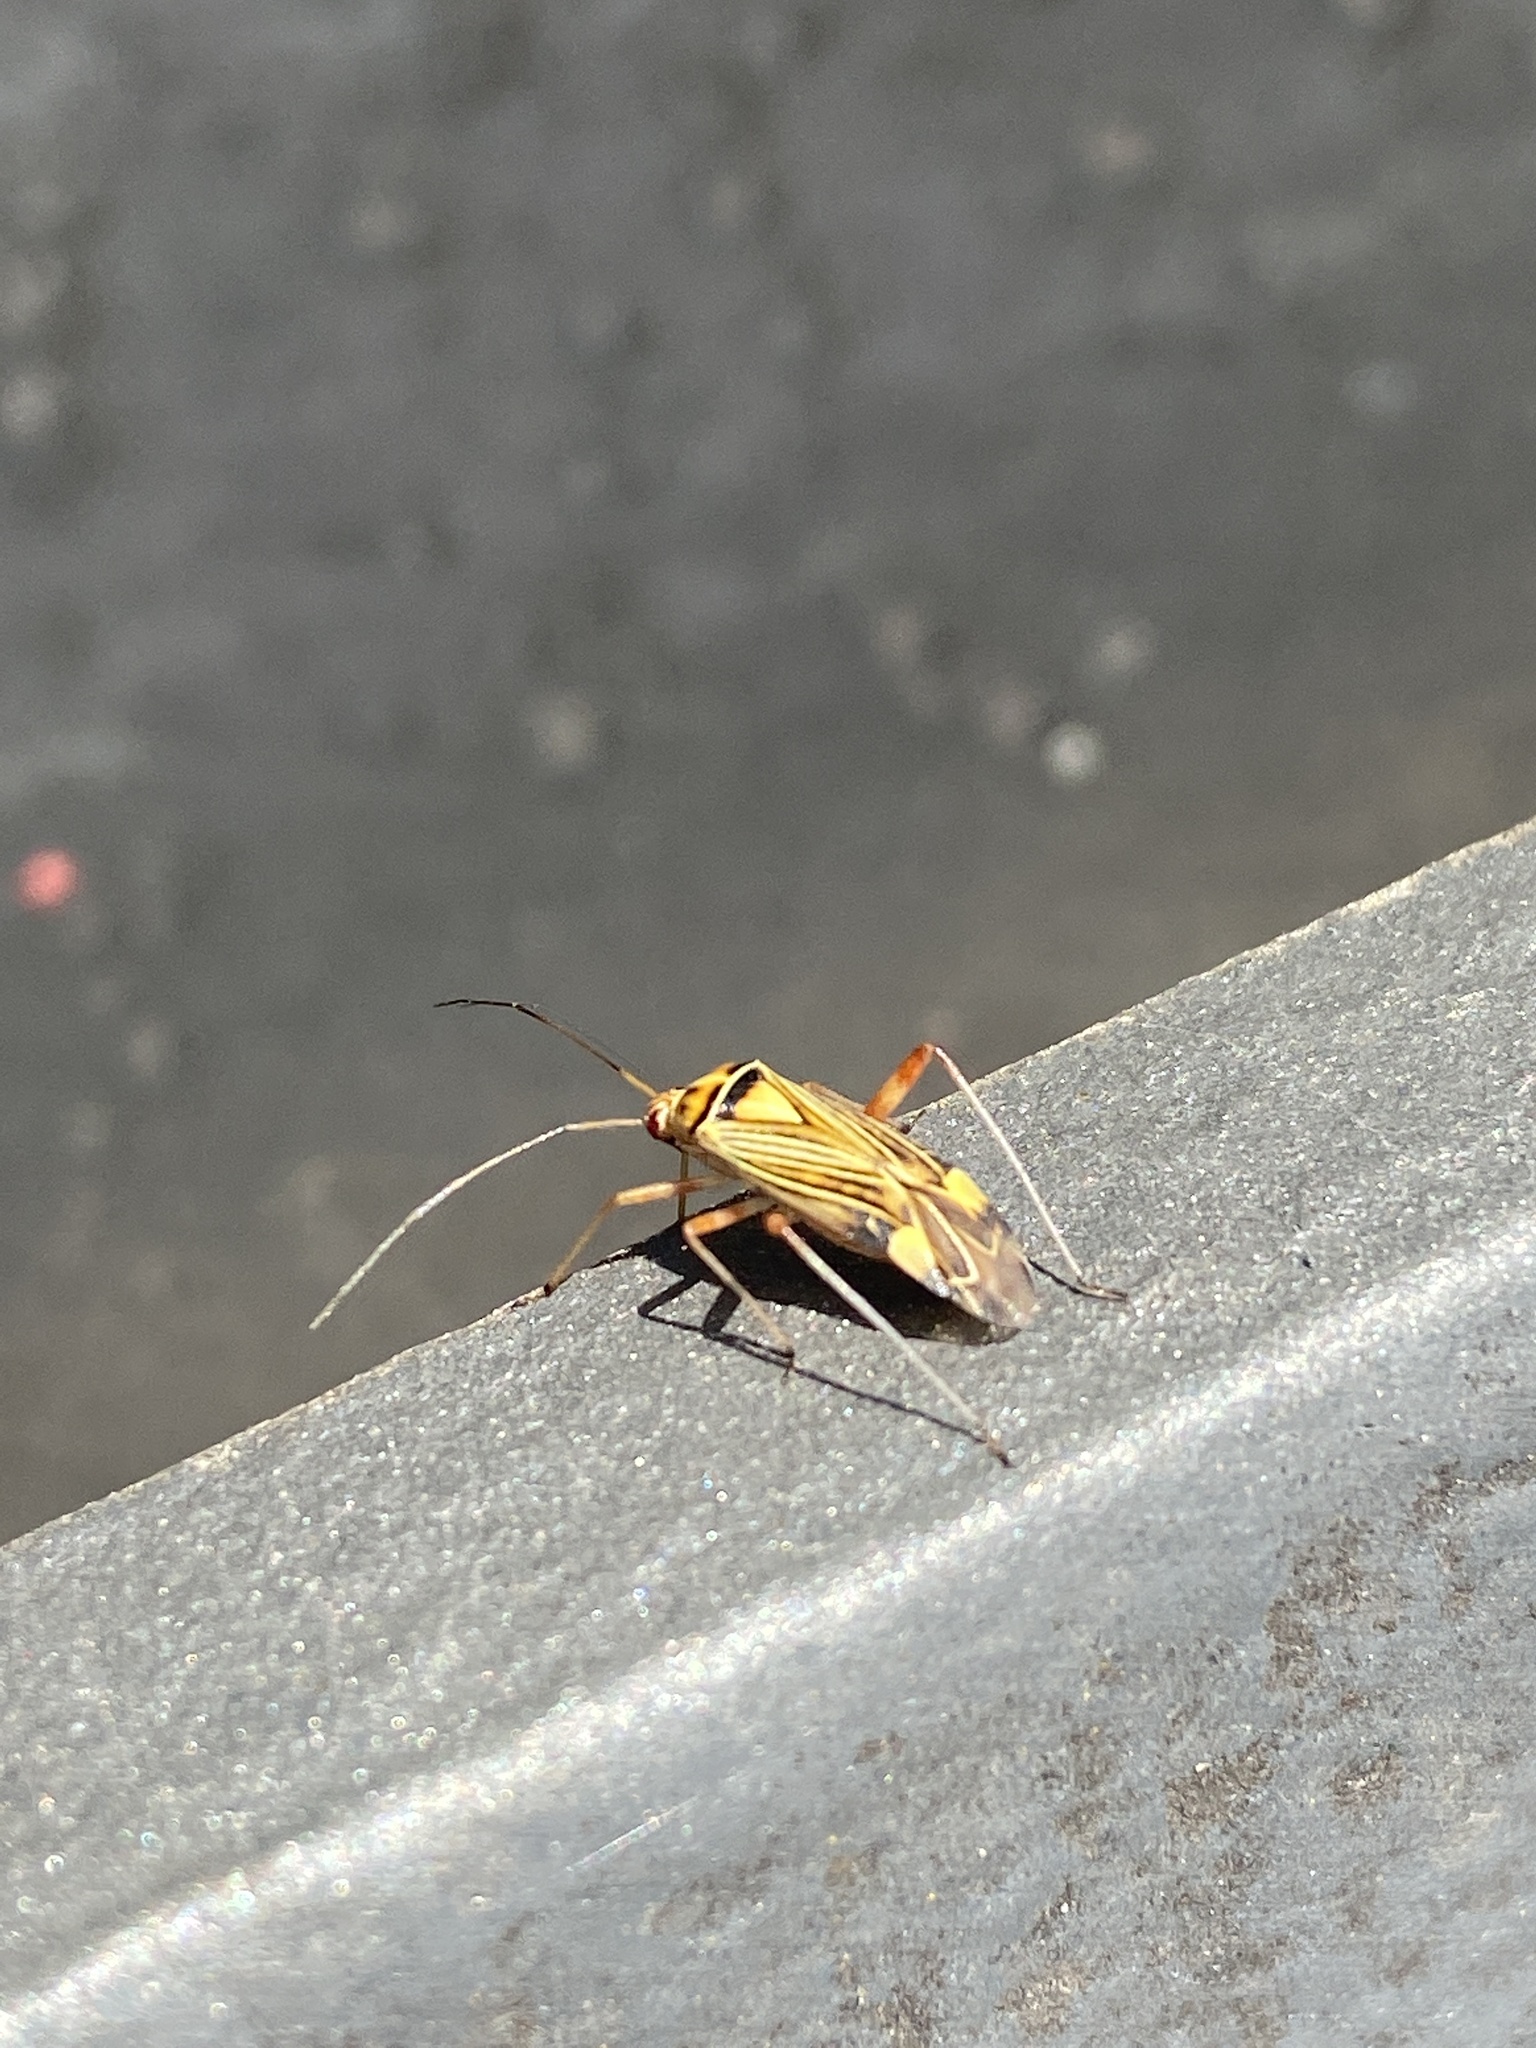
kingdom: Animalia
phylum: Arthropoda
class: Insecta
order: Hemiptera
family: Miridae
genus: Rhabdomiris
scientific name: Rhabdomiris striatellus
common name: Plant bug
